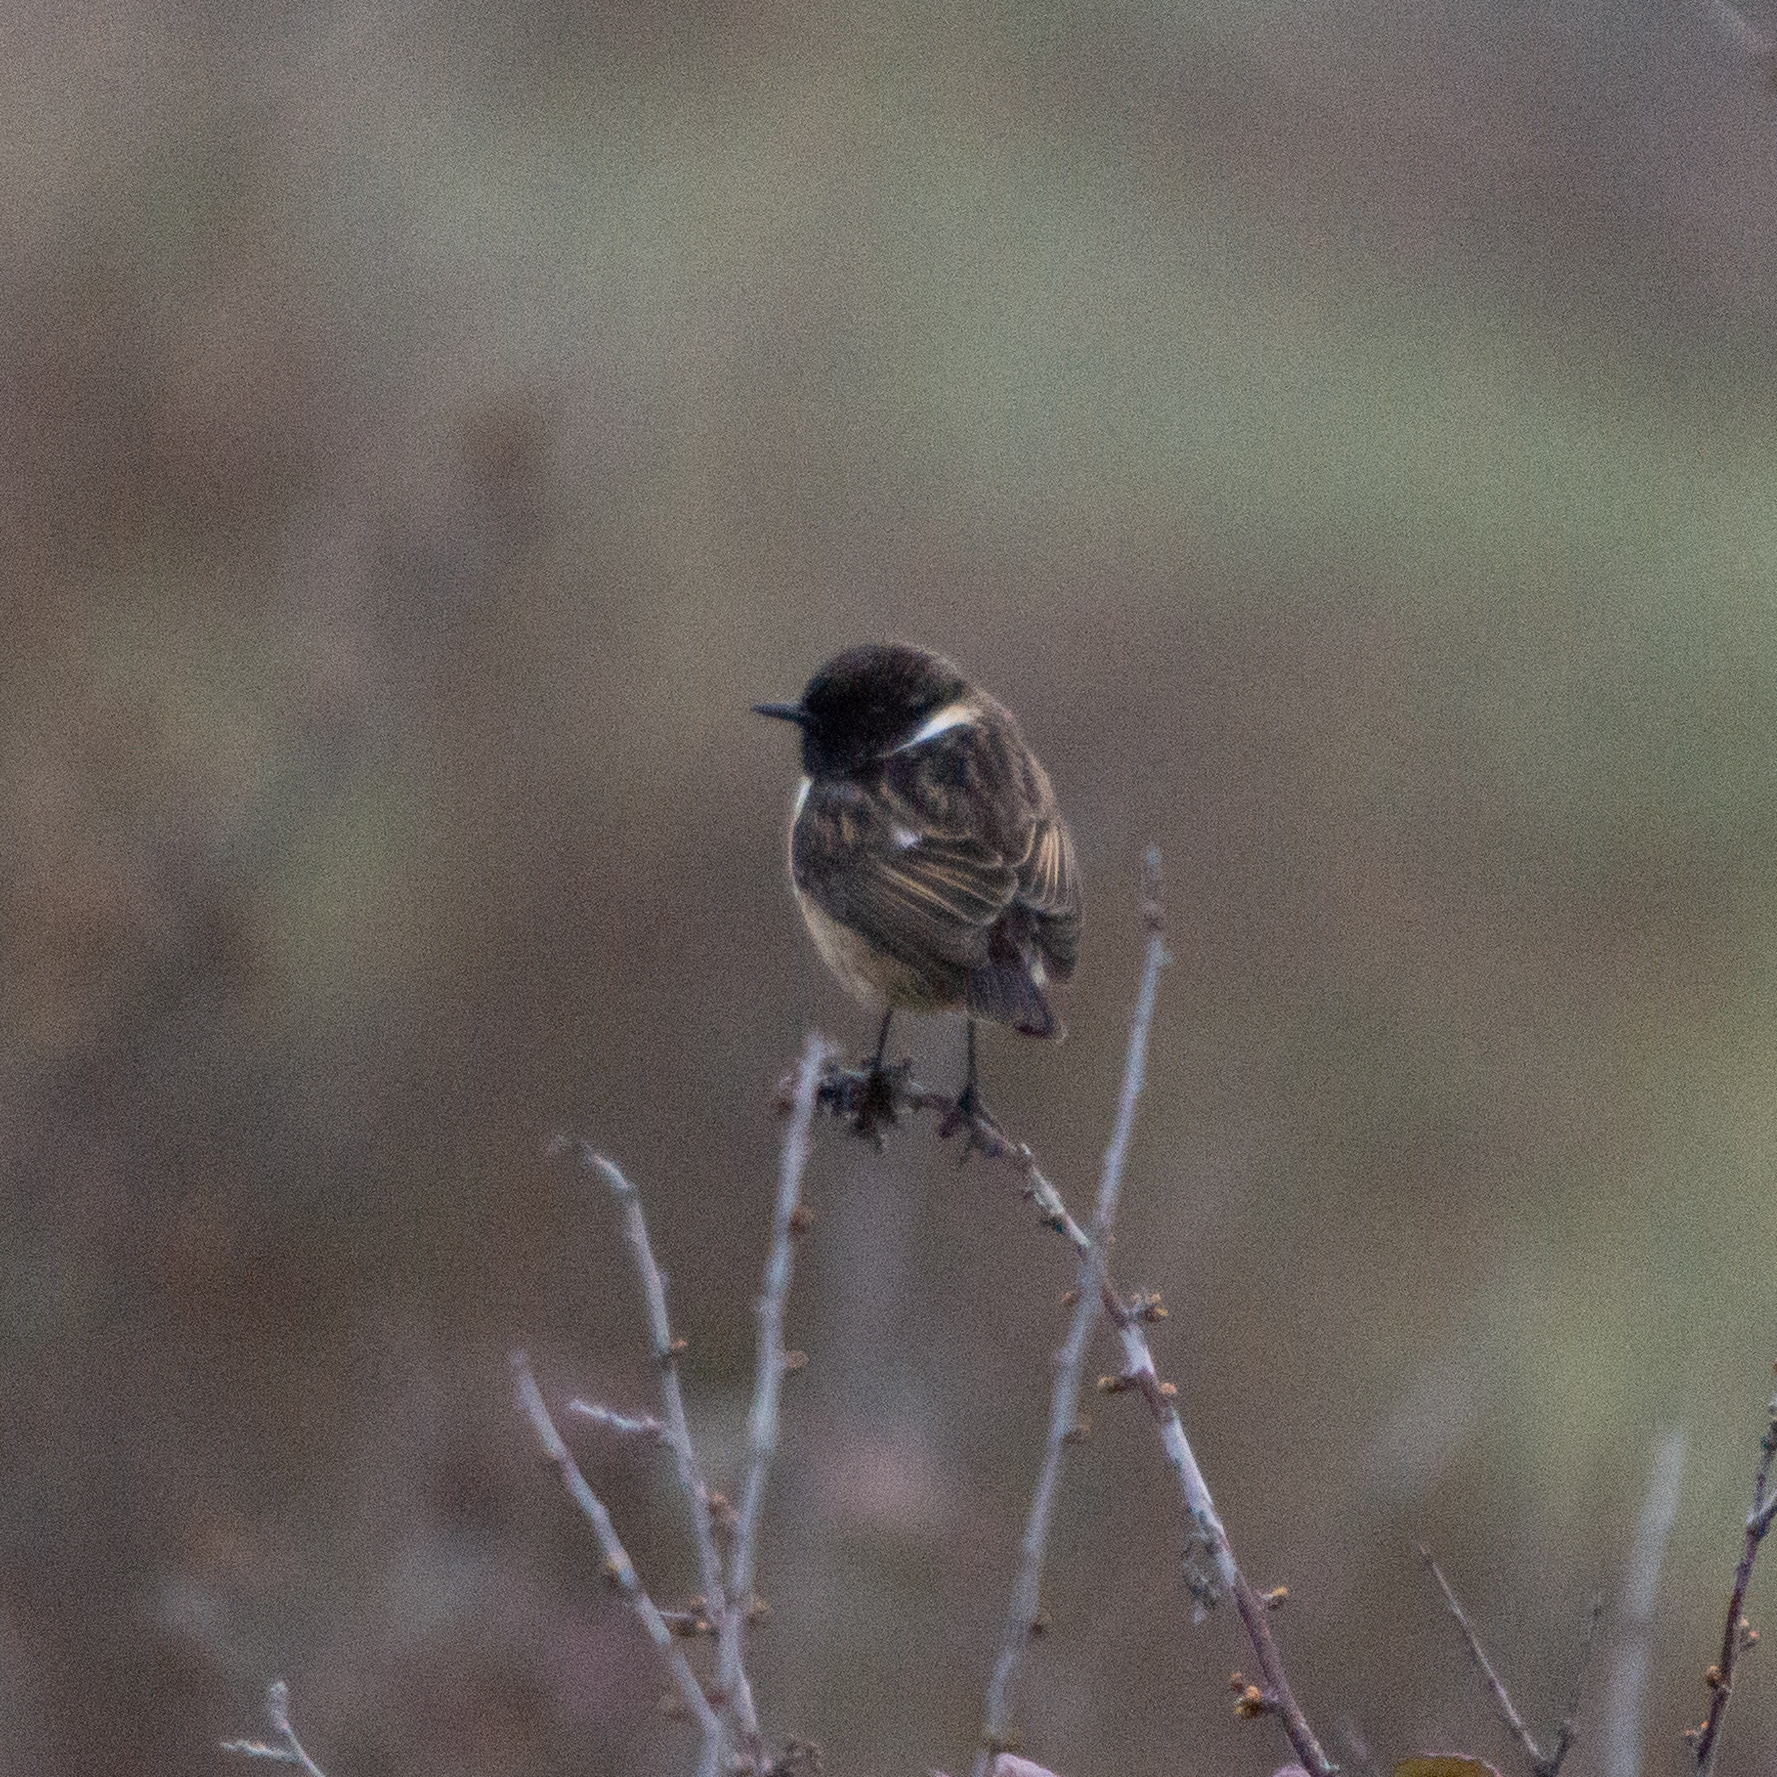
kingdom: Animalia
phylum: Chordata
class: Aves
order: Passeriformes
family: Muscicapidae
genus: Saxicola
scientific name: Saxicola rubicola
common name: European stonechat
